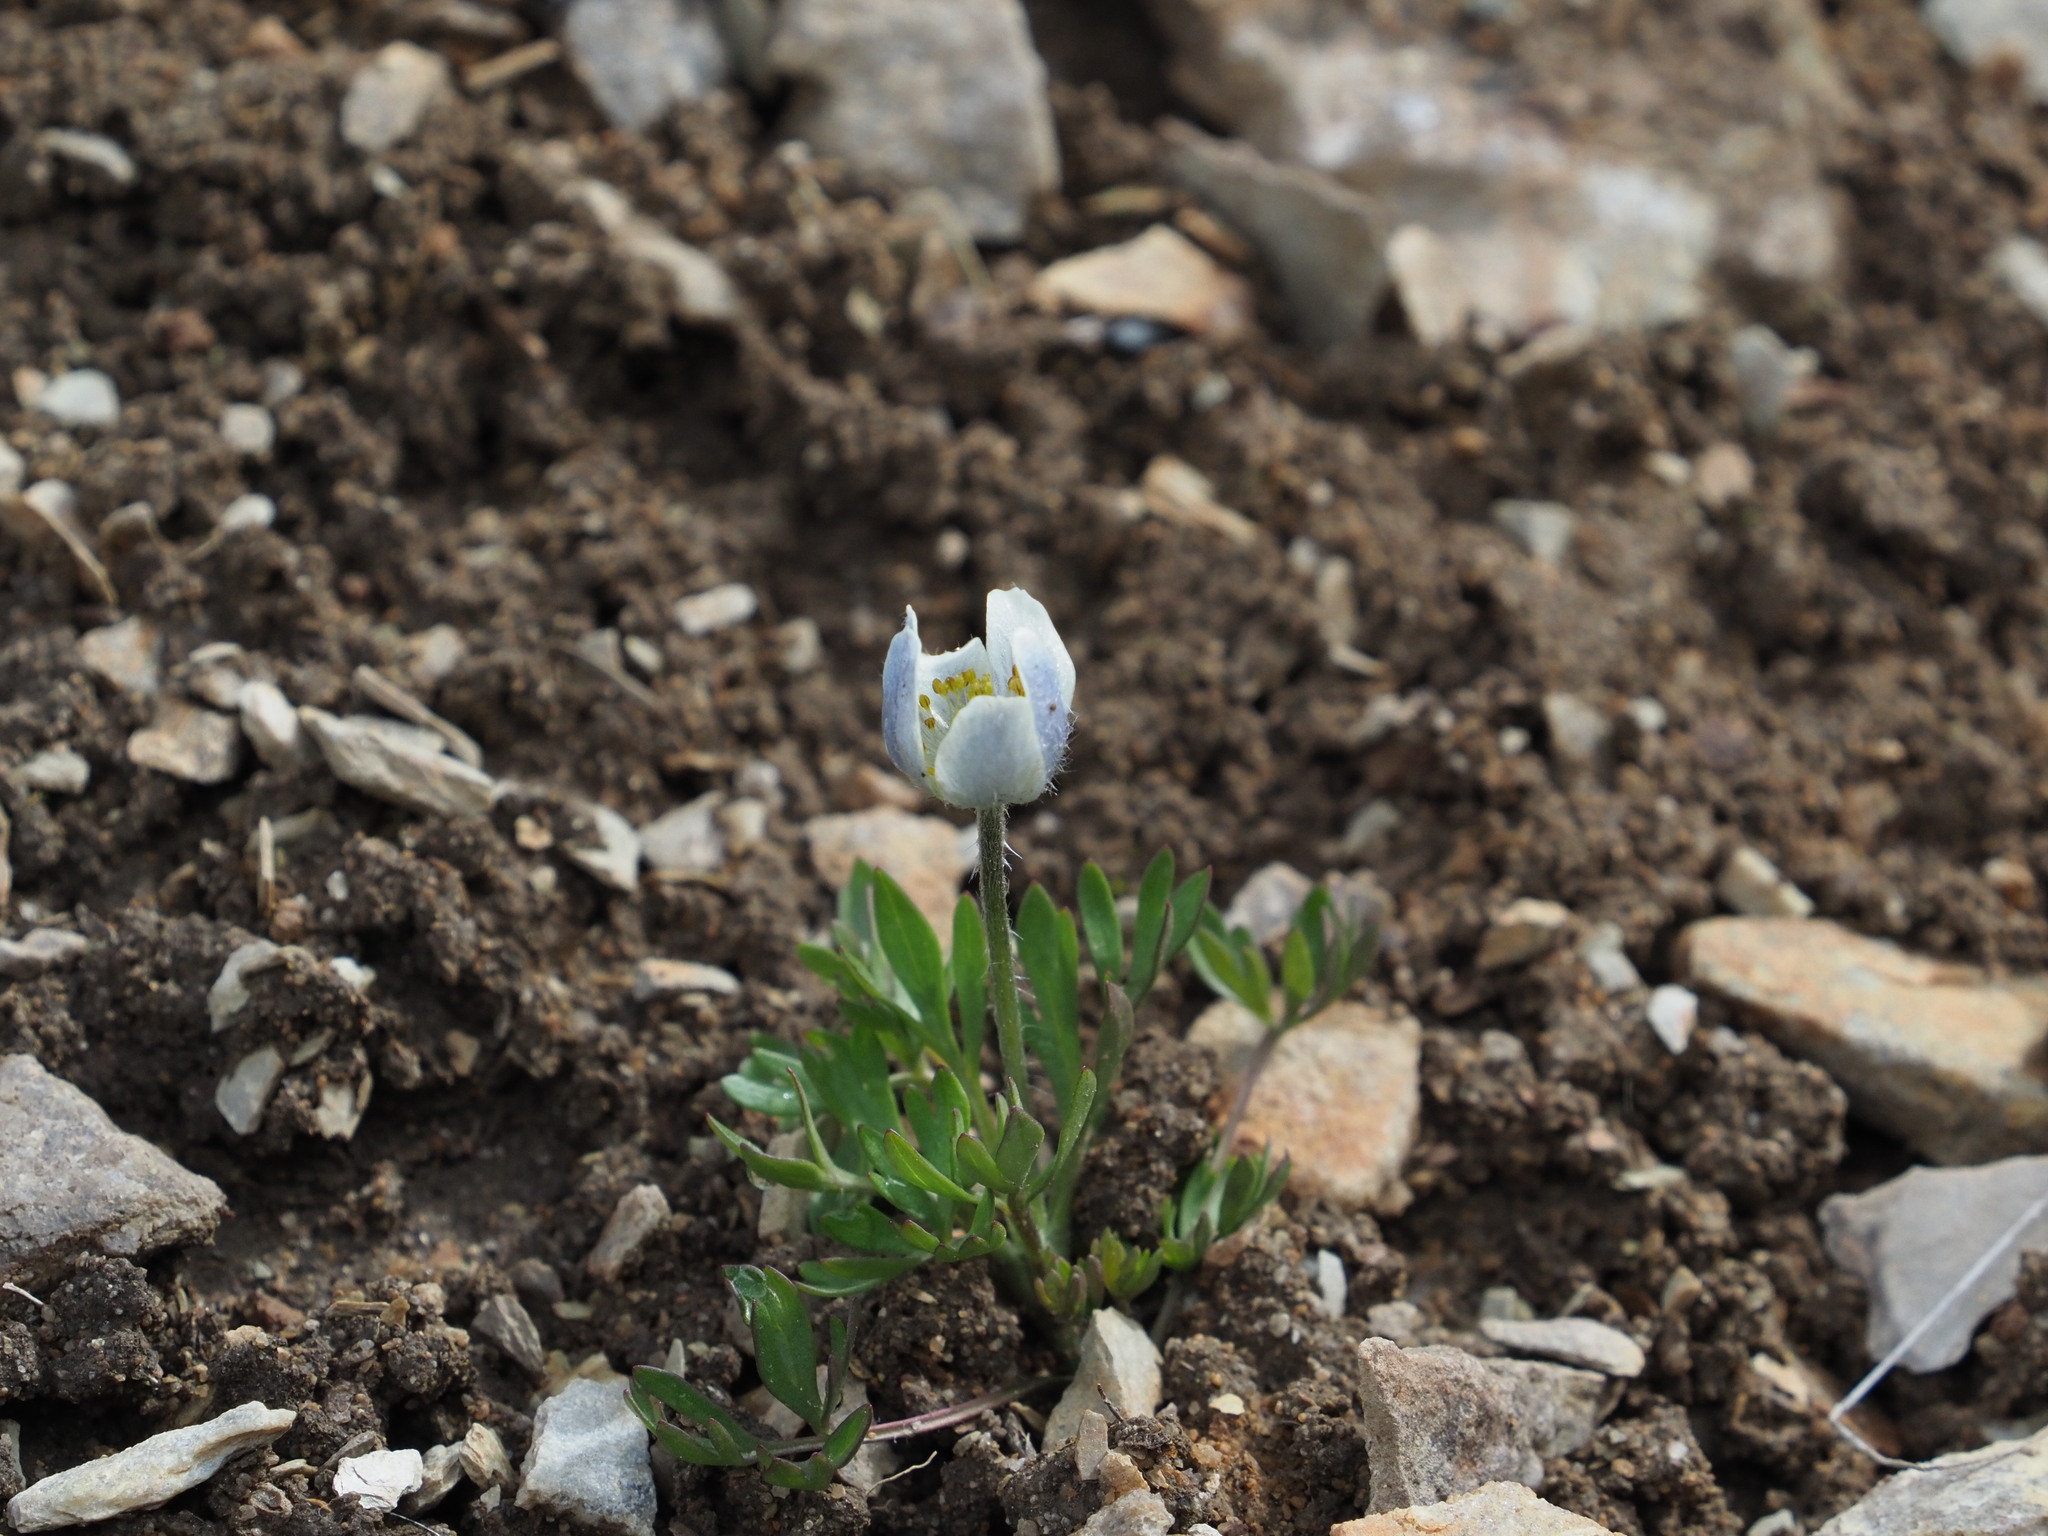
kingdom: Plantae
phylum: Tracheophyta
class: Magnoliopsida
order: Ranunculales
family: Ranunculaceae
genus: Anemone
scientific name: Anemone drummondii
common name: Drummond's anemone
